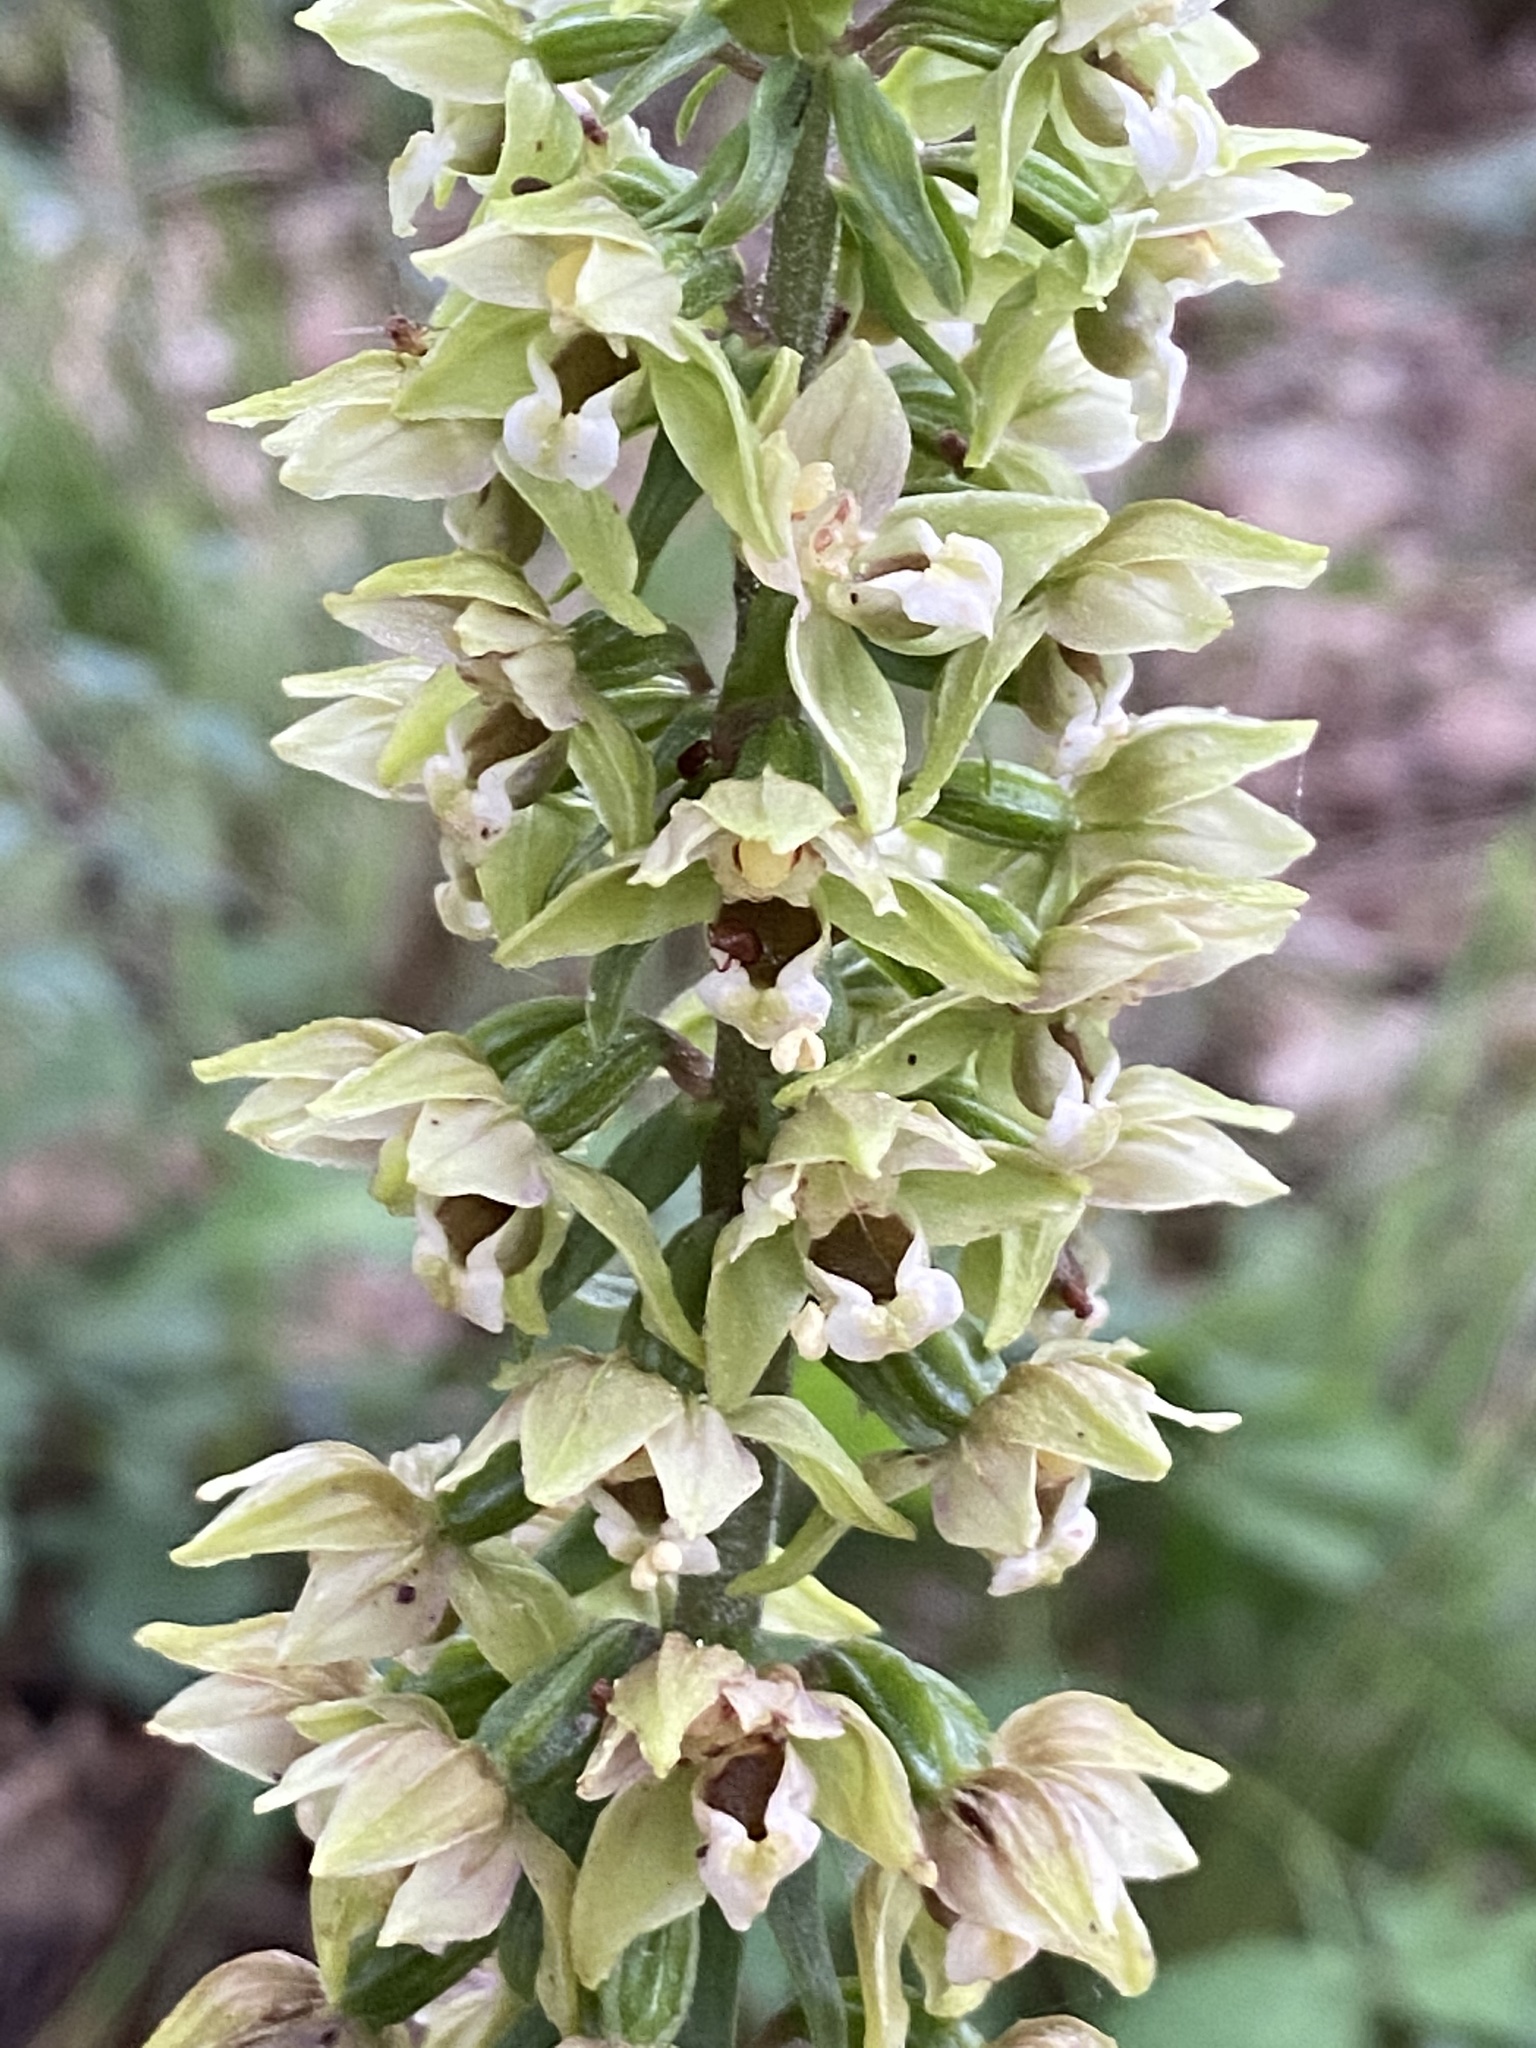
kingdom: Plantae
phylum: Tracheophyta
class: Liliopsida
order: Asparagales
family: Orchidaceae
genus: Epipactis
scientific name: Epipactis helleborine
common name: Broad-leaved helleborine
